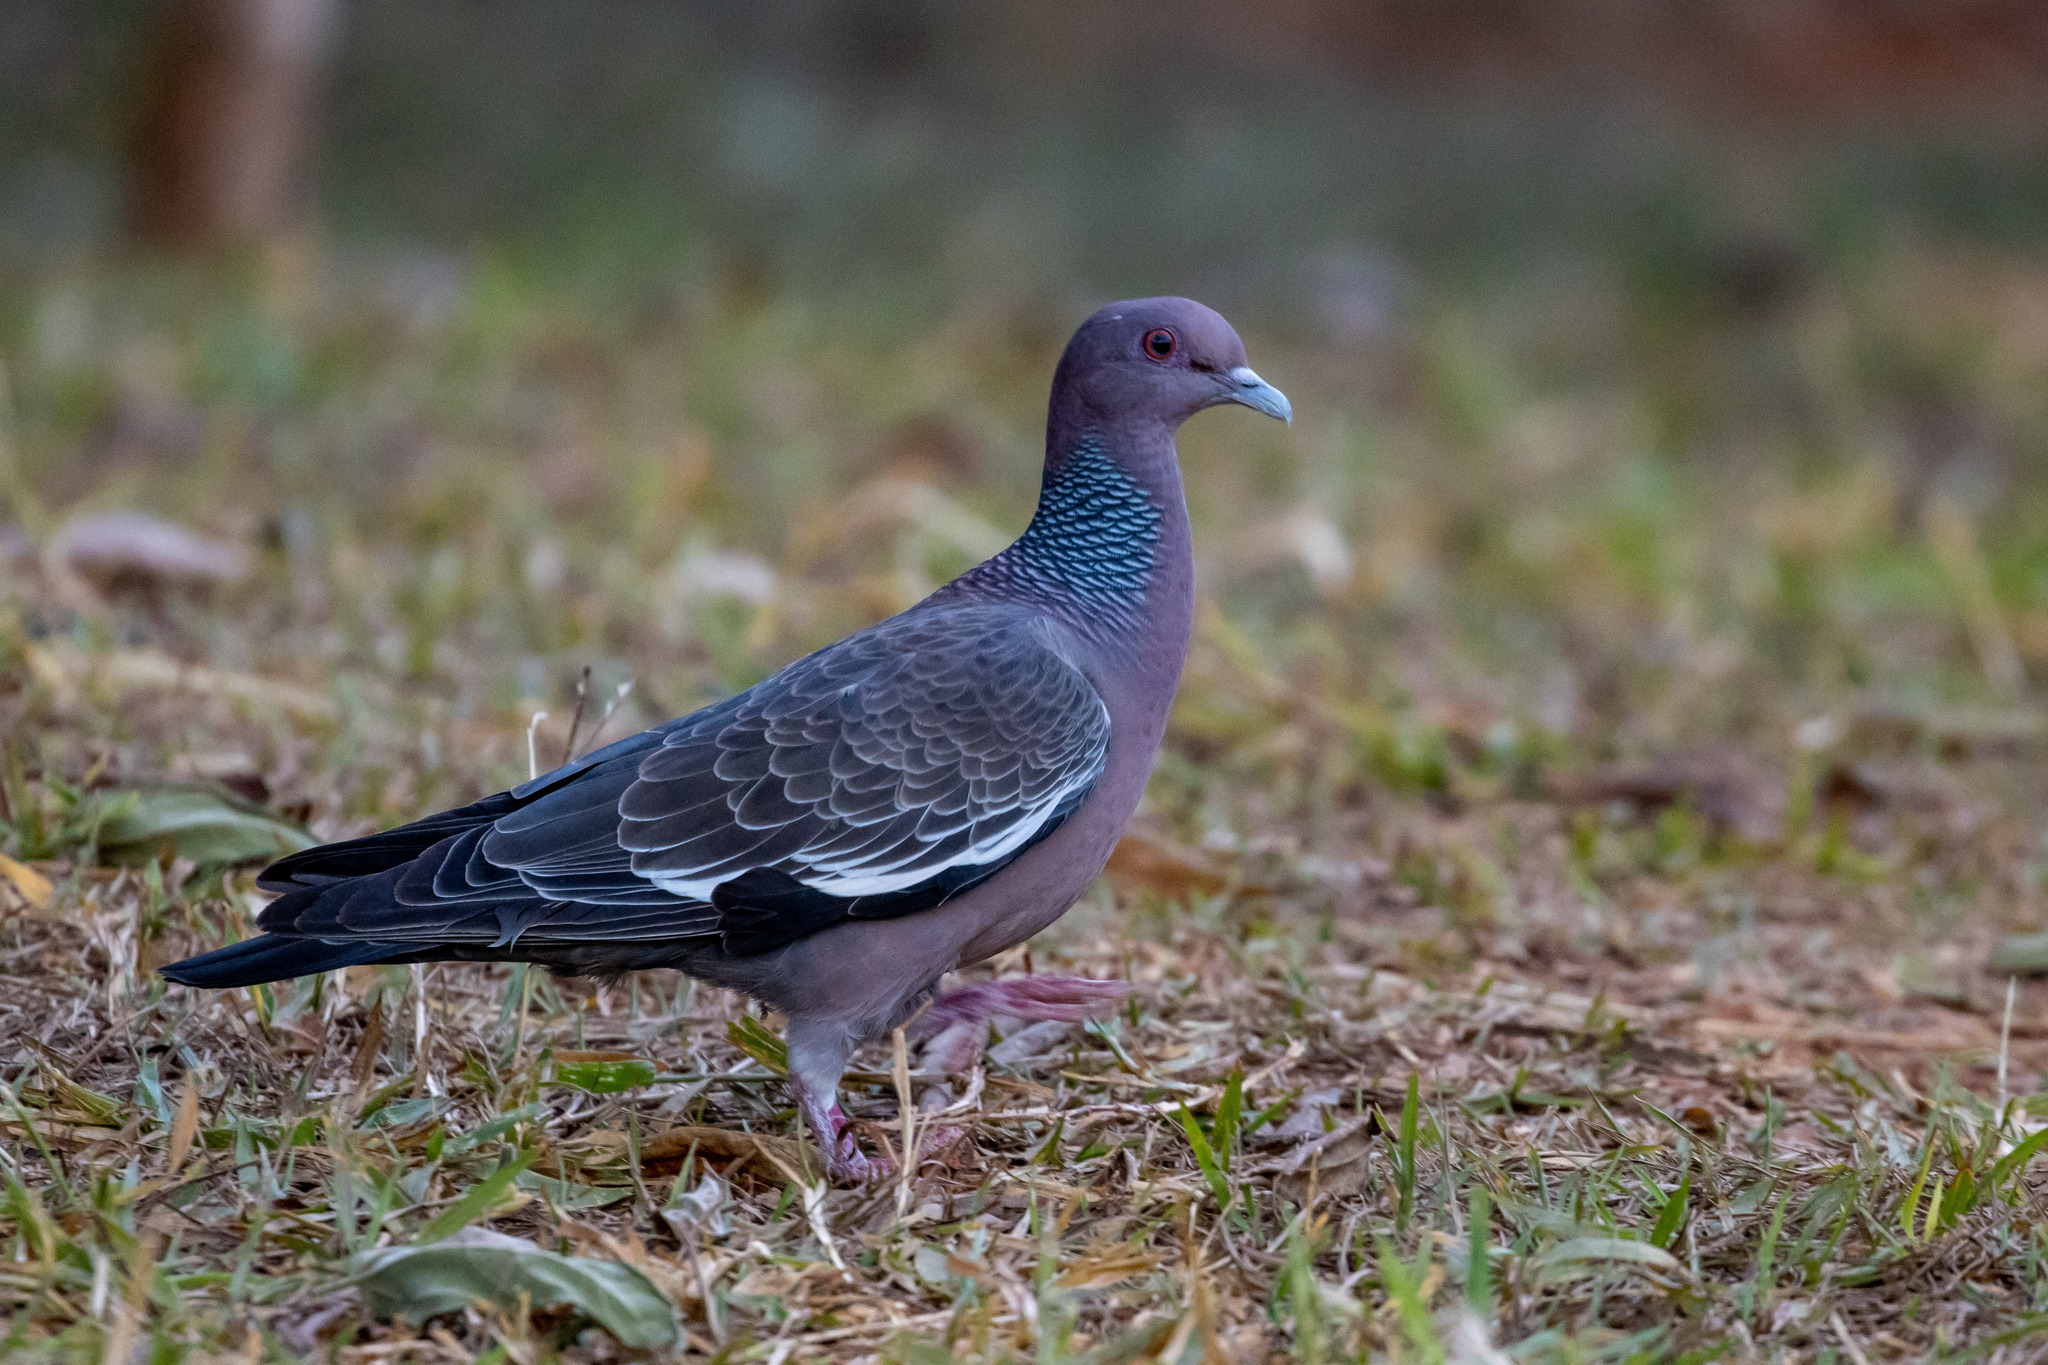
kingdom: Animalia
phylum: Chordata
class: Aves
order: Columbiformes
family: Columbidae
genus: Patagioenas
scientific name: Patagioenas picazuro
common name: Picazuro pigeon
